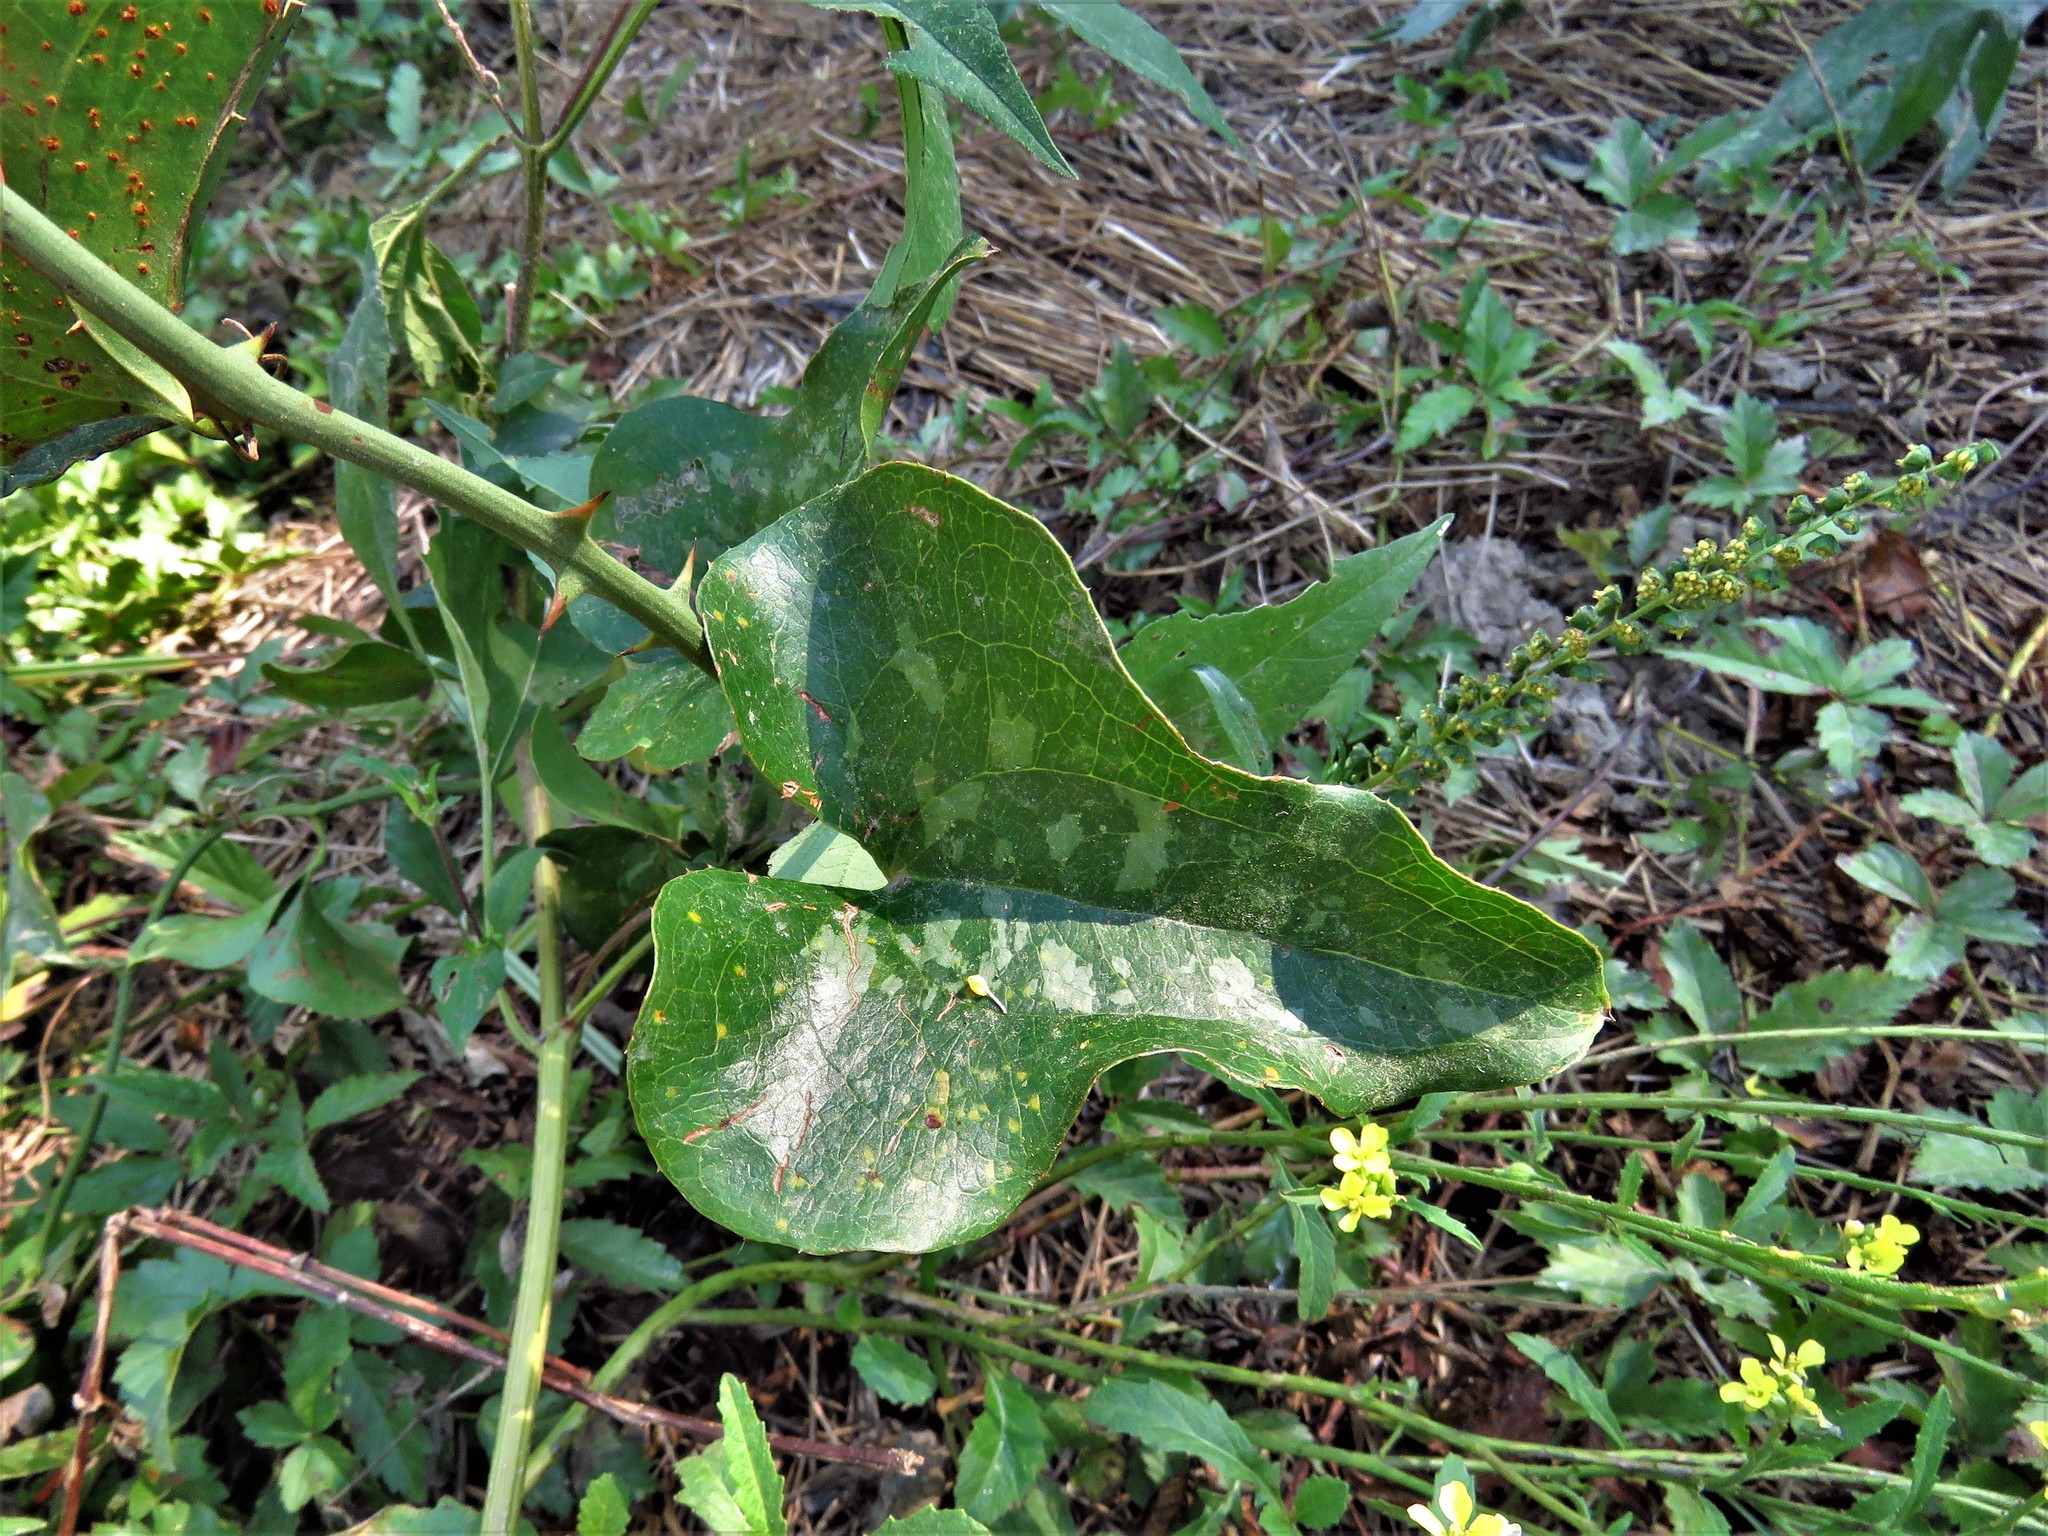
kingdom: Plantae
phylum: Tracheophyta
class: Liliopsida
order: Liliales
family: Smilacaceae
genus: Smilax
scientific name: Smilax bona-nox
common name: Catbrier
